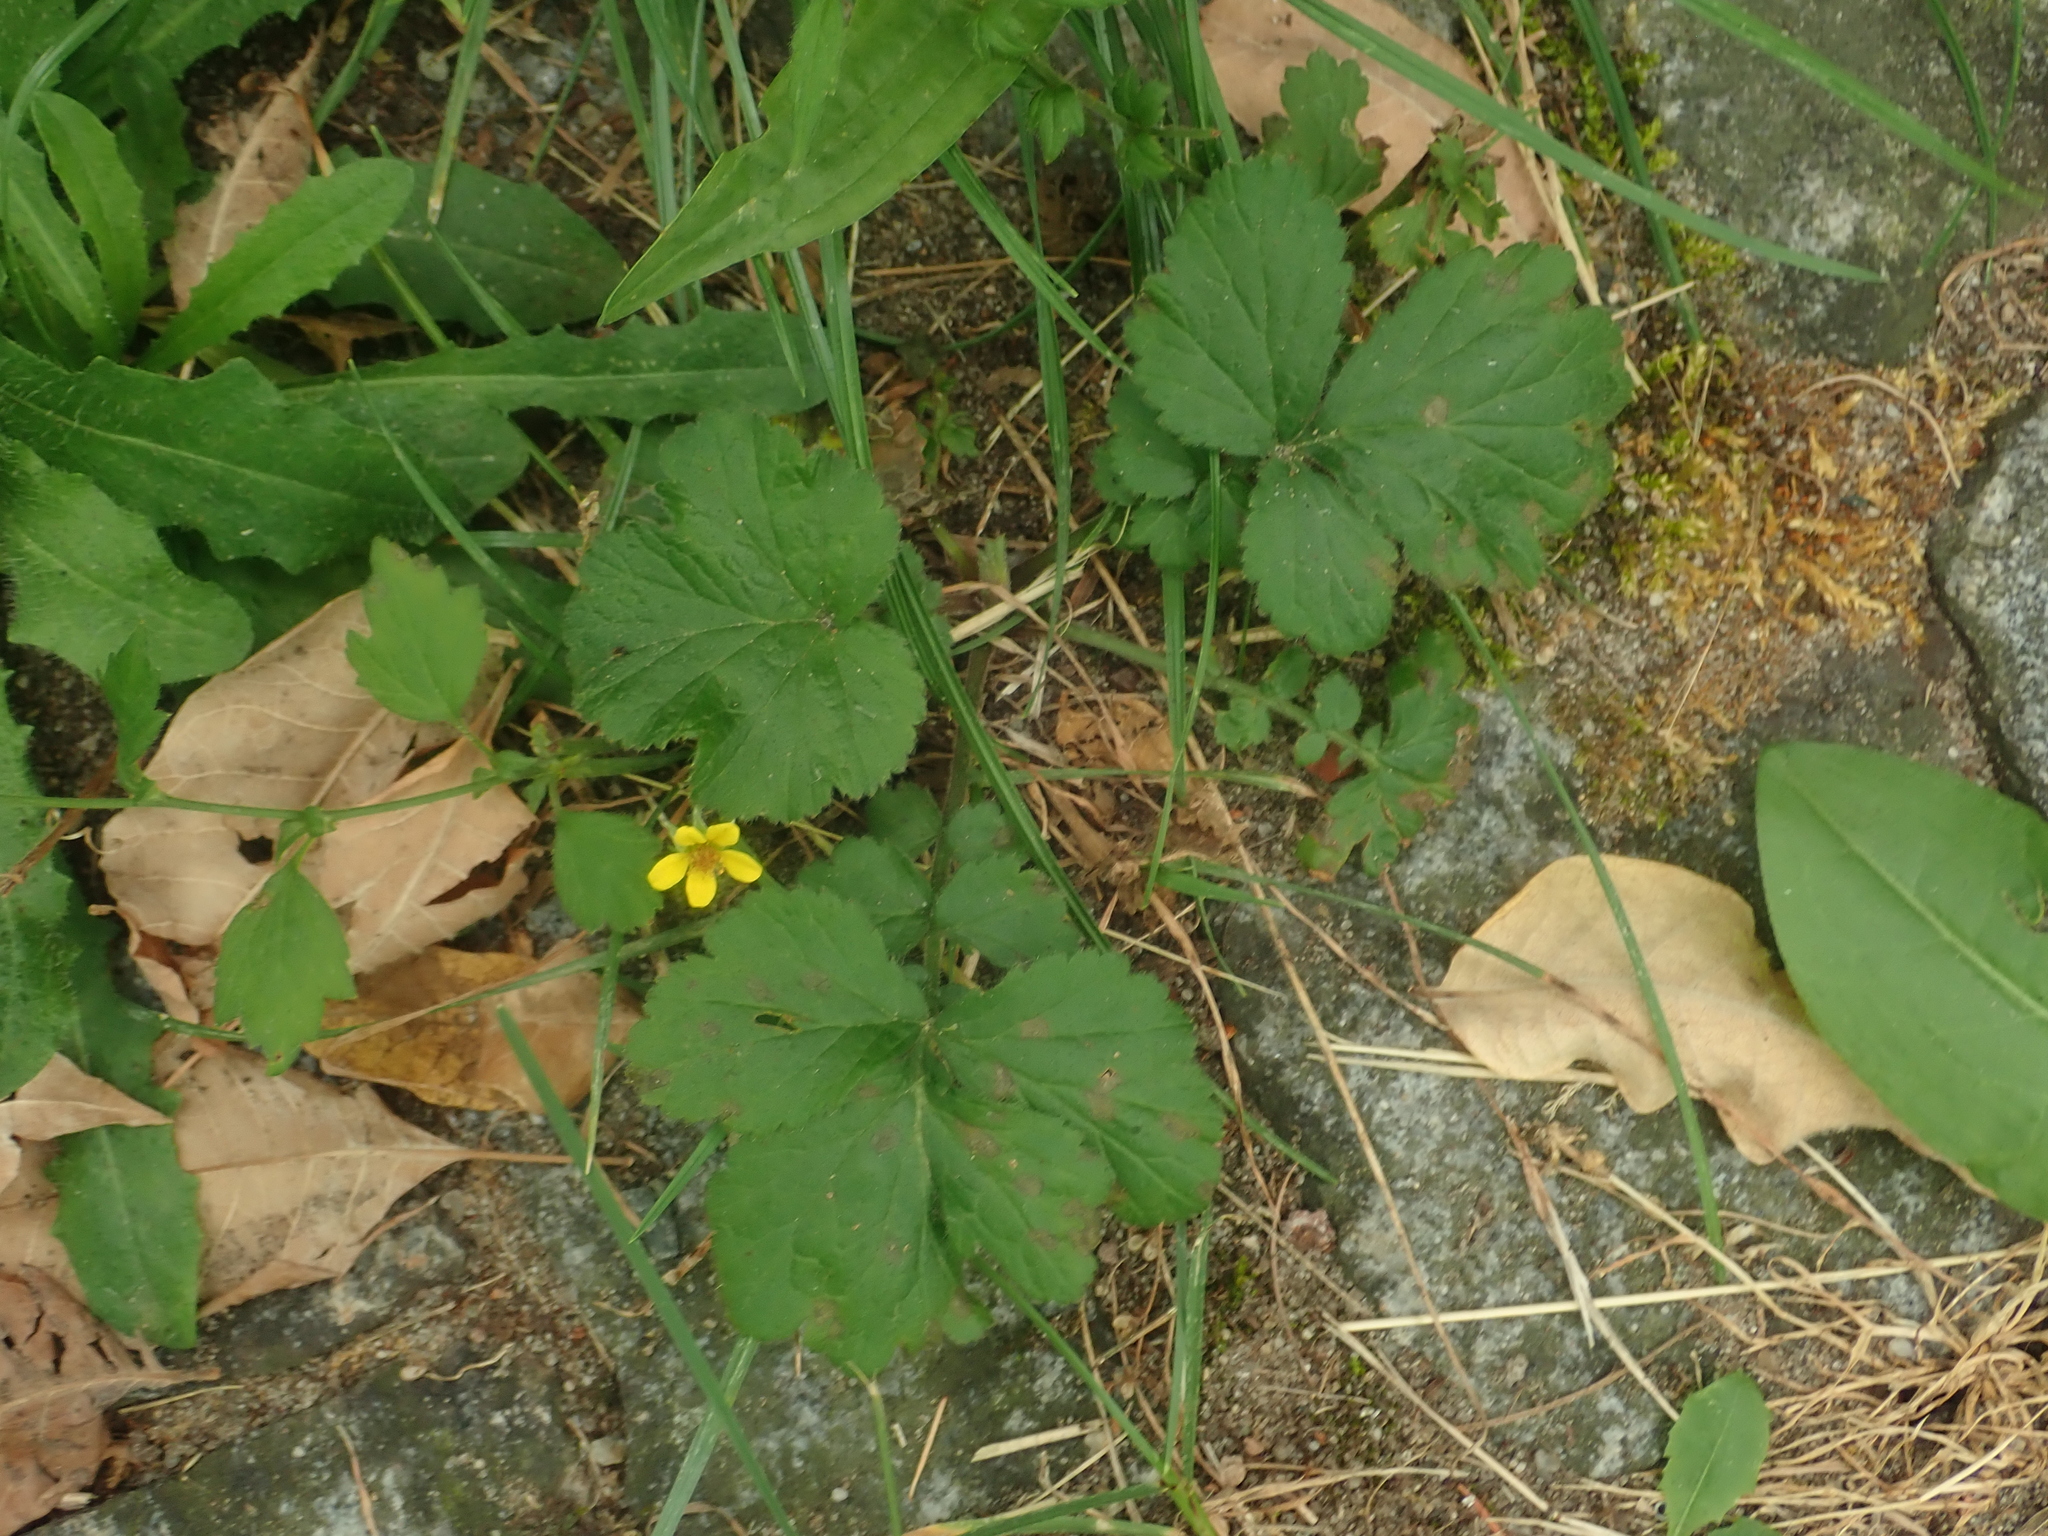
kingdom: Plantae
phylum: Tracheophyta
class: Magnoliopsida
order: Rosales
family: Rosaceae
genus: Geum
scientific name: Geum urbanum
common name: Wood avens
